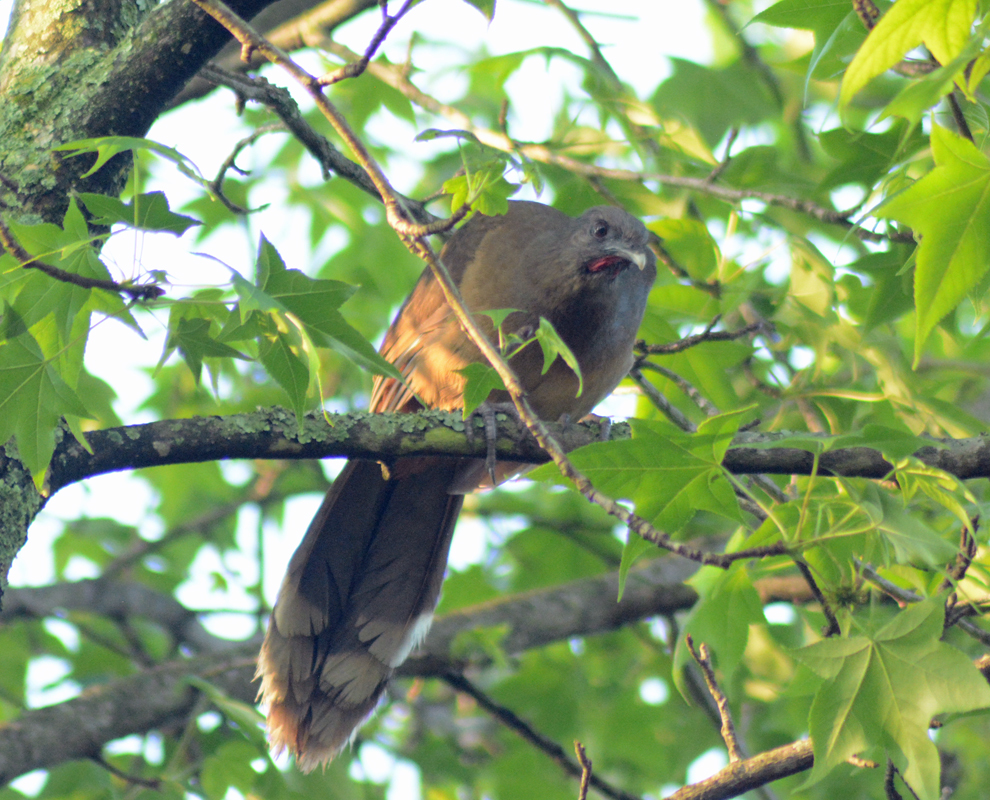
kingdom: Animalia
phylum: Chordata
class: Aves
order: Galliformes
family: Cracidae
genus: Ortalis
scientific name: Ortalis vetula
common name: Plain chachalaca
